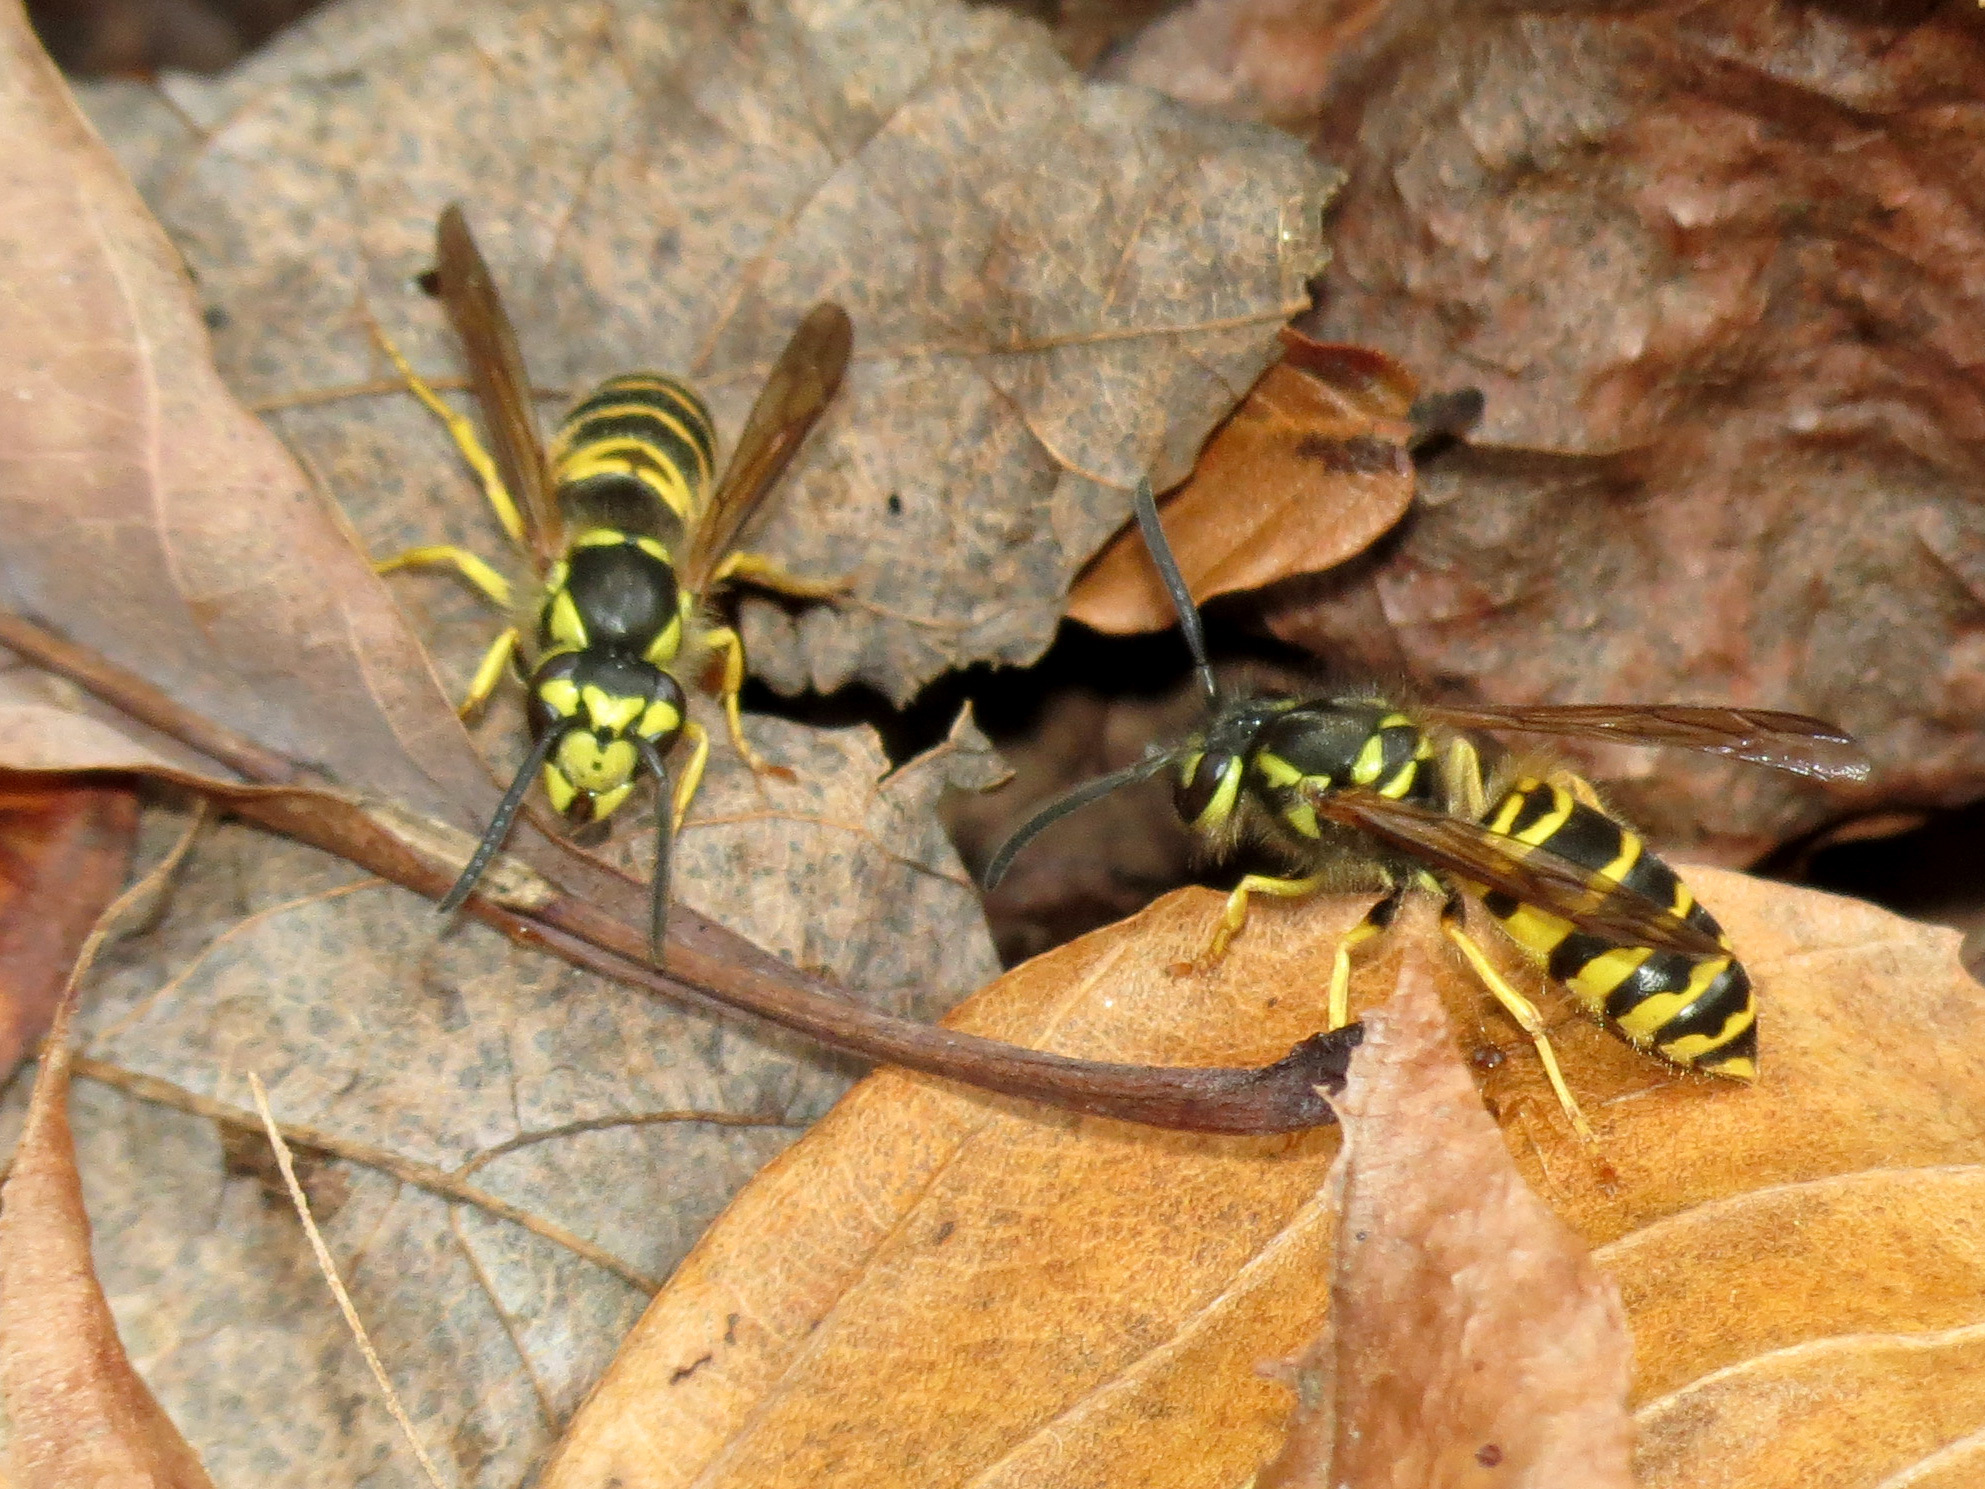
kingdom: Animalia
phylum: Arthropoda
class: Insecta
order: Hymenoptera
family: Vespidae
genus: Vespula
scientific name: Vespula maculifrons
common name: Eastern yellowjacket
